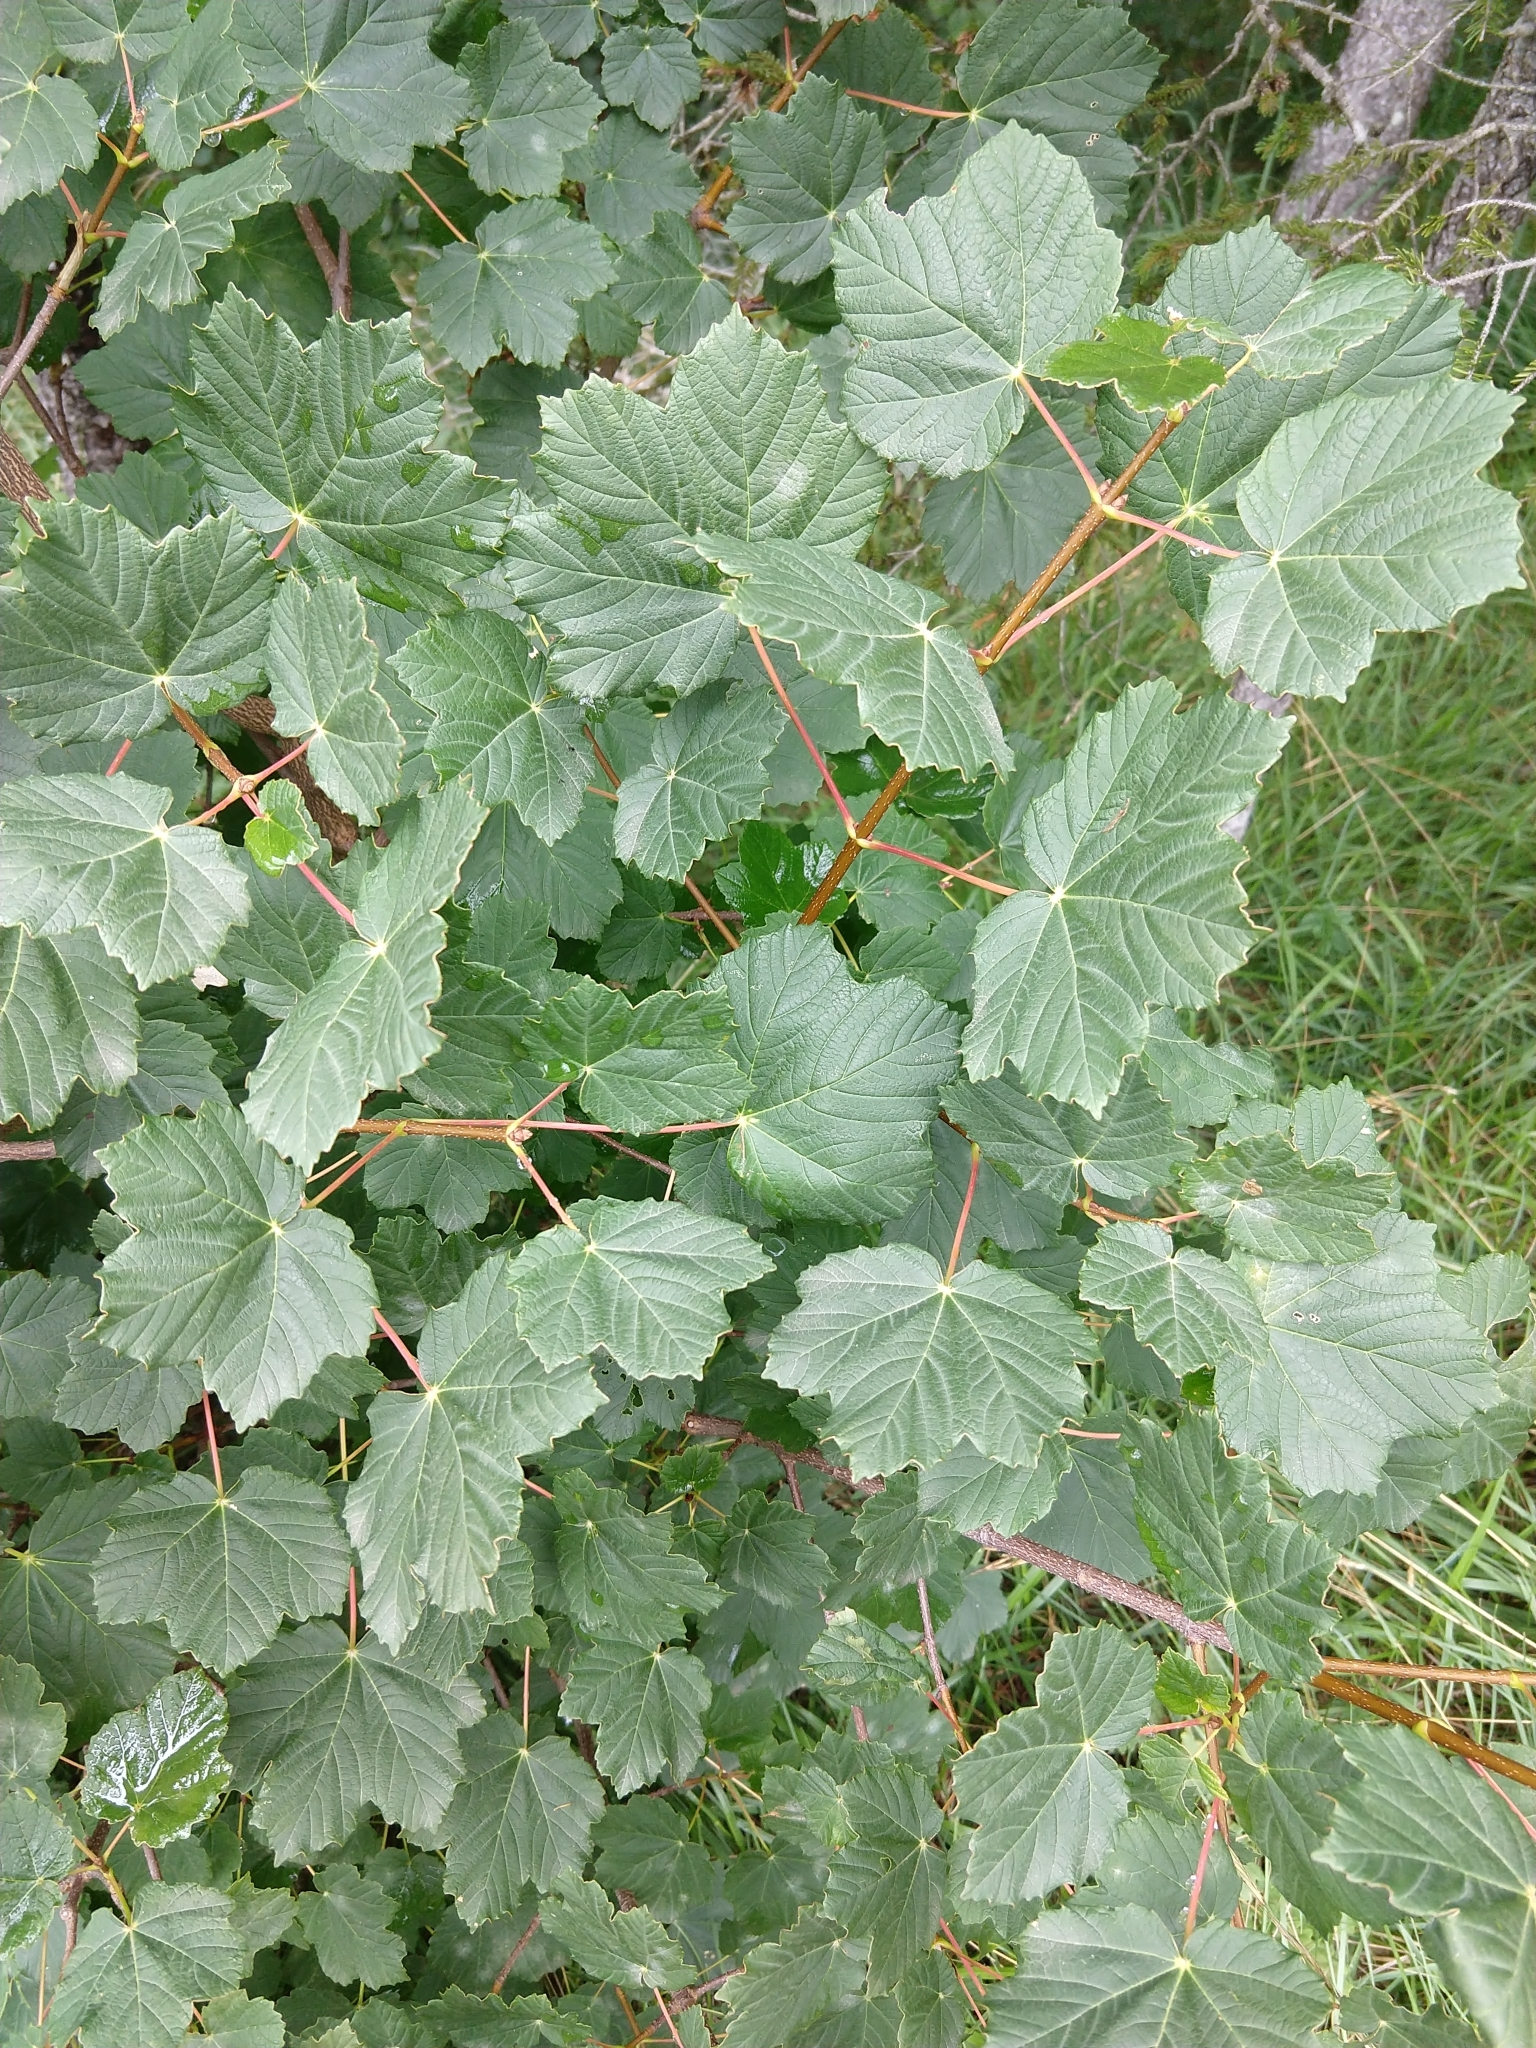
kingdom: Plantae
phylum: Tracheophyta
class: Magnoliopsida
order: Sapindales
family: Sapindaceae
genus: Acer
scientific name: Acer opalus
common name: Italian maple
